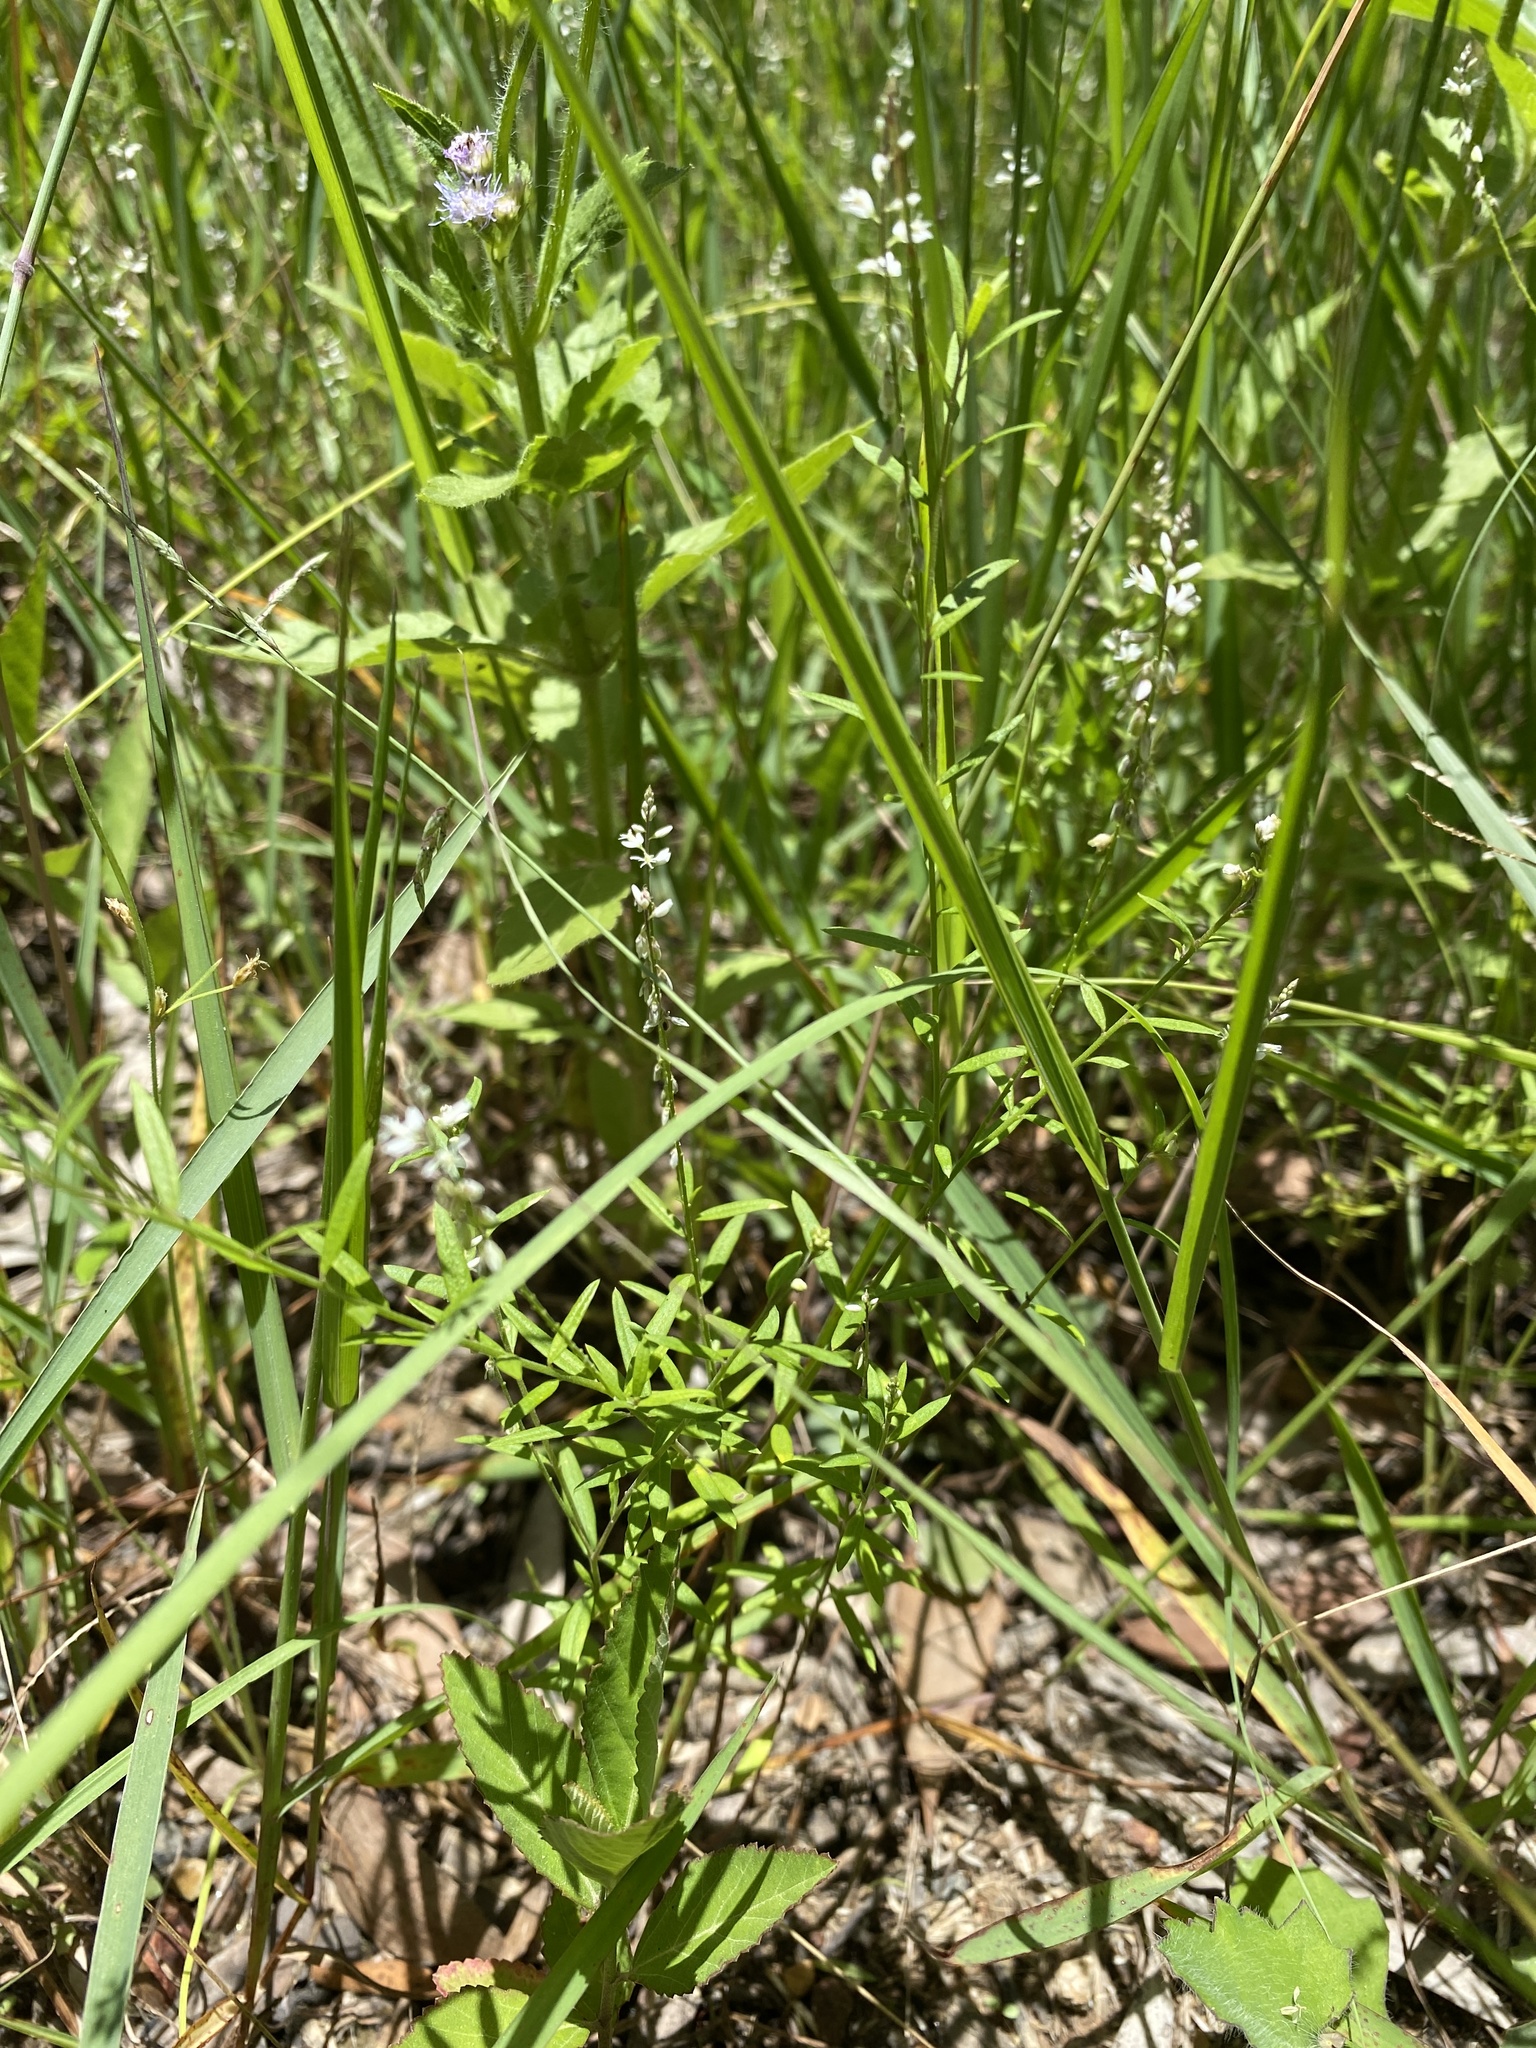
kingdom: Plantae
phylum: Tracheophyta
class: Magnoliopsida
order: Fabales
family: Polygalaceae
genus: Polygala
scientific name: Polygala paniculata
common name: Orosne
